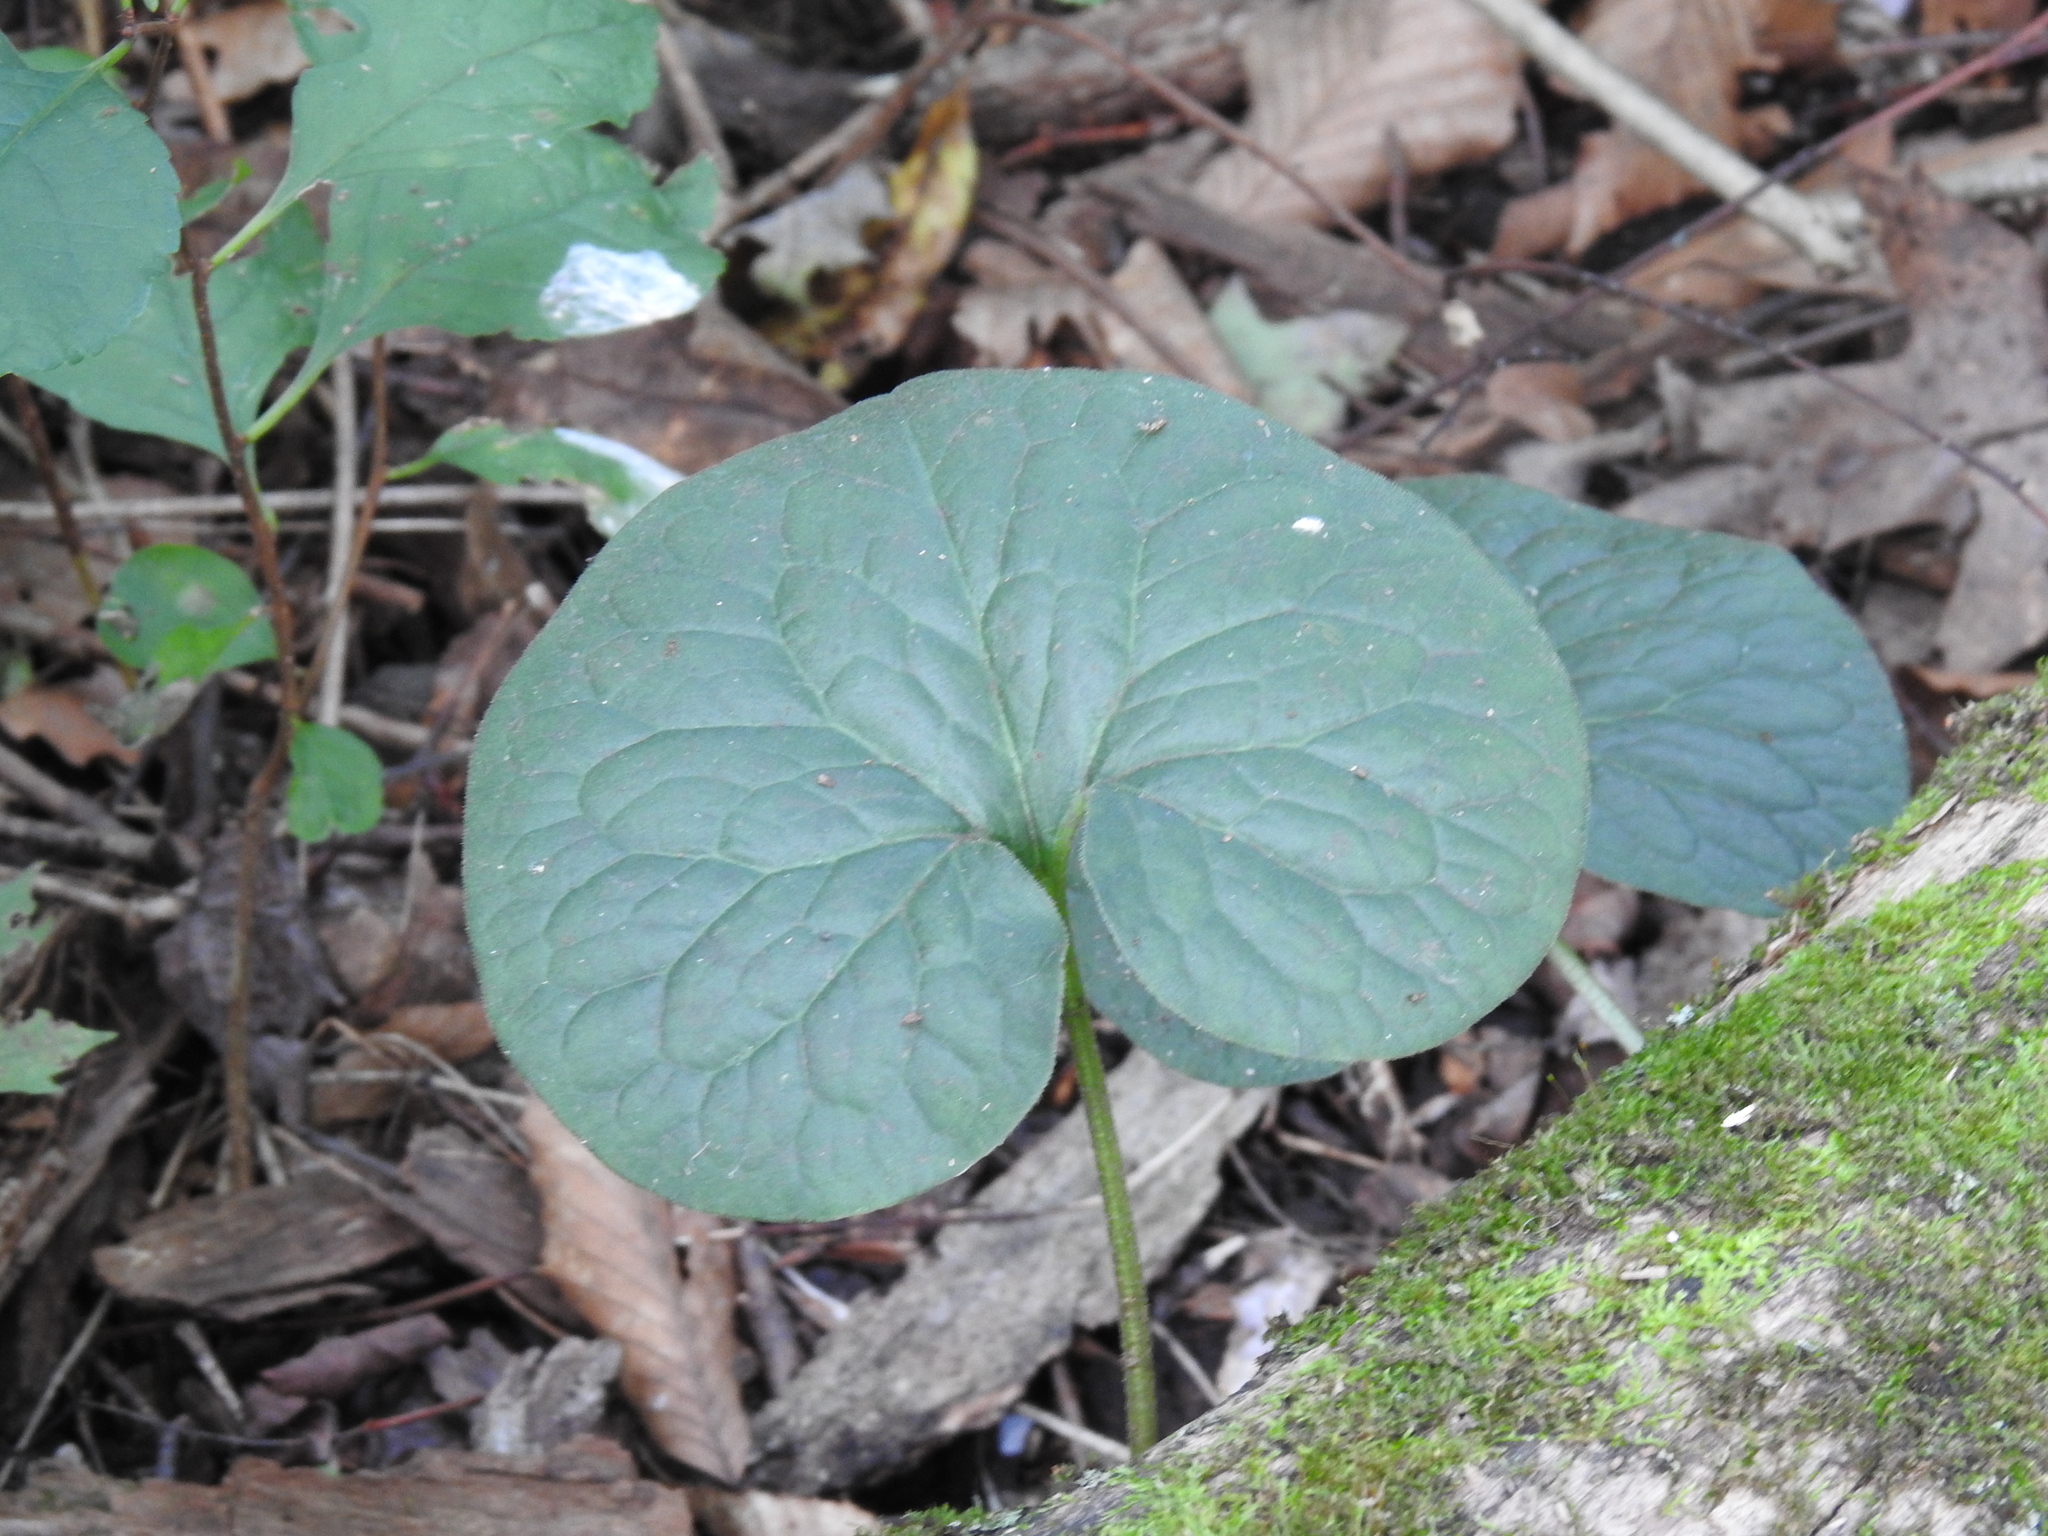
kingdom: Plantae
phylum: Tracheophyta
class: Magnoliopsida
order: Piperales
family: Aristolochiaceae
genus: Asarum
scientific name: Asarum canadense
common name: Wild ginger
